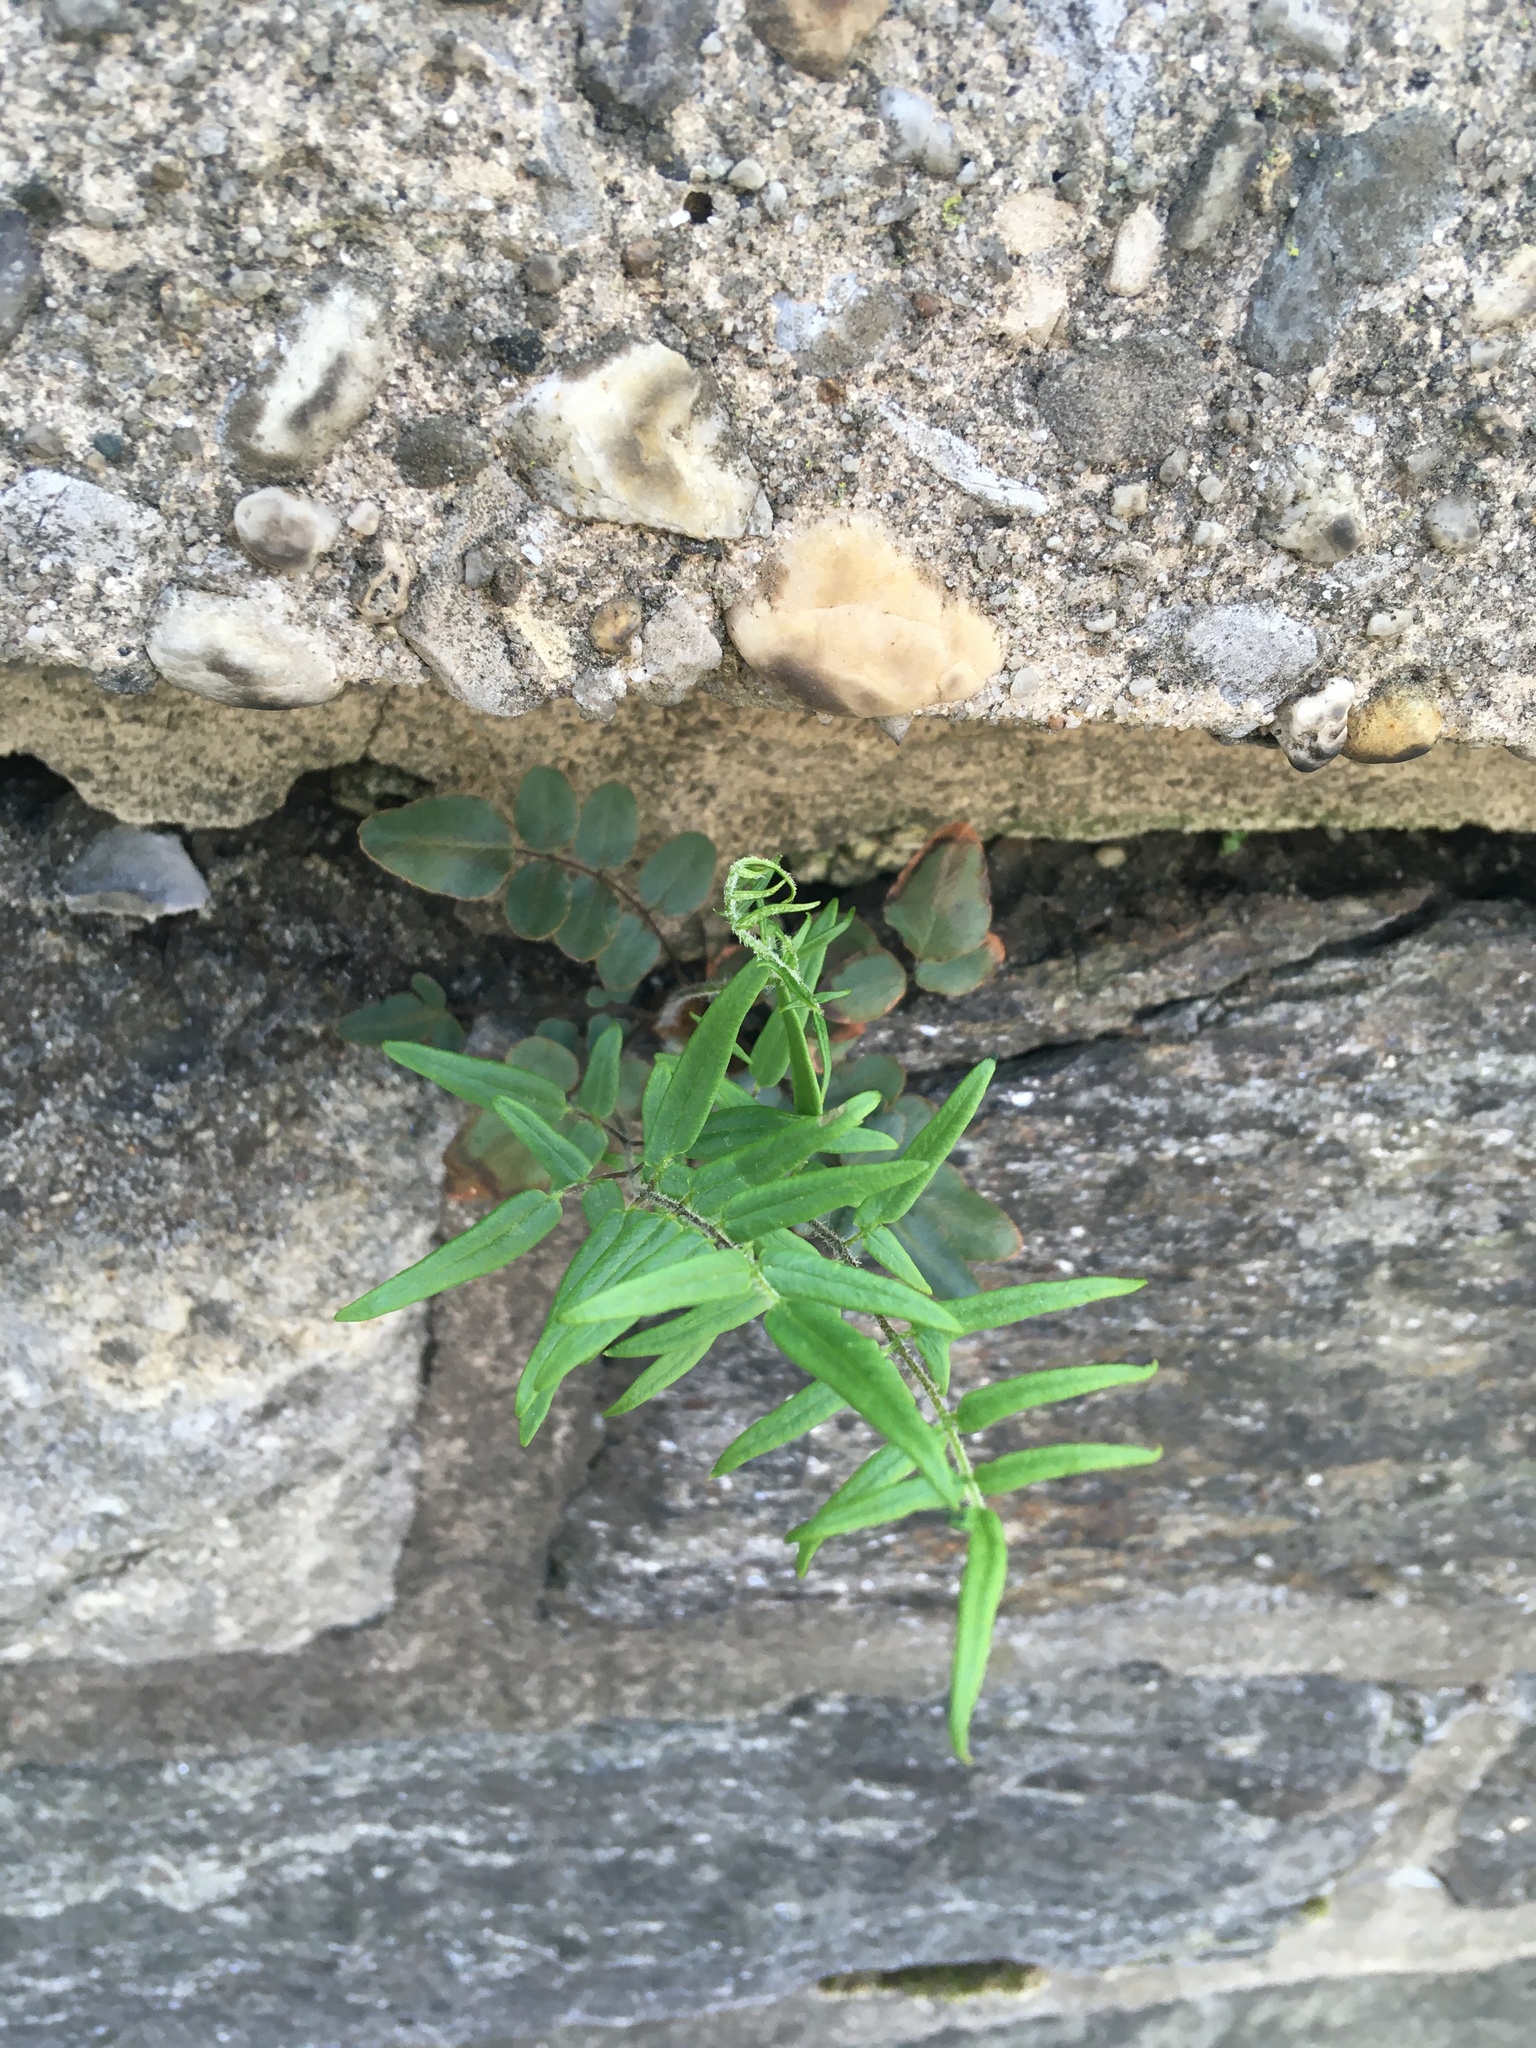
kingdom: Plantae
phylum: Tracheophyta
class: Polypodiopsida
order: Polypodiales
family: Pteridaceae
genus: Pellaea
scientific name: Pellaea atropurpurea
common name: Hairy cliffbrake
